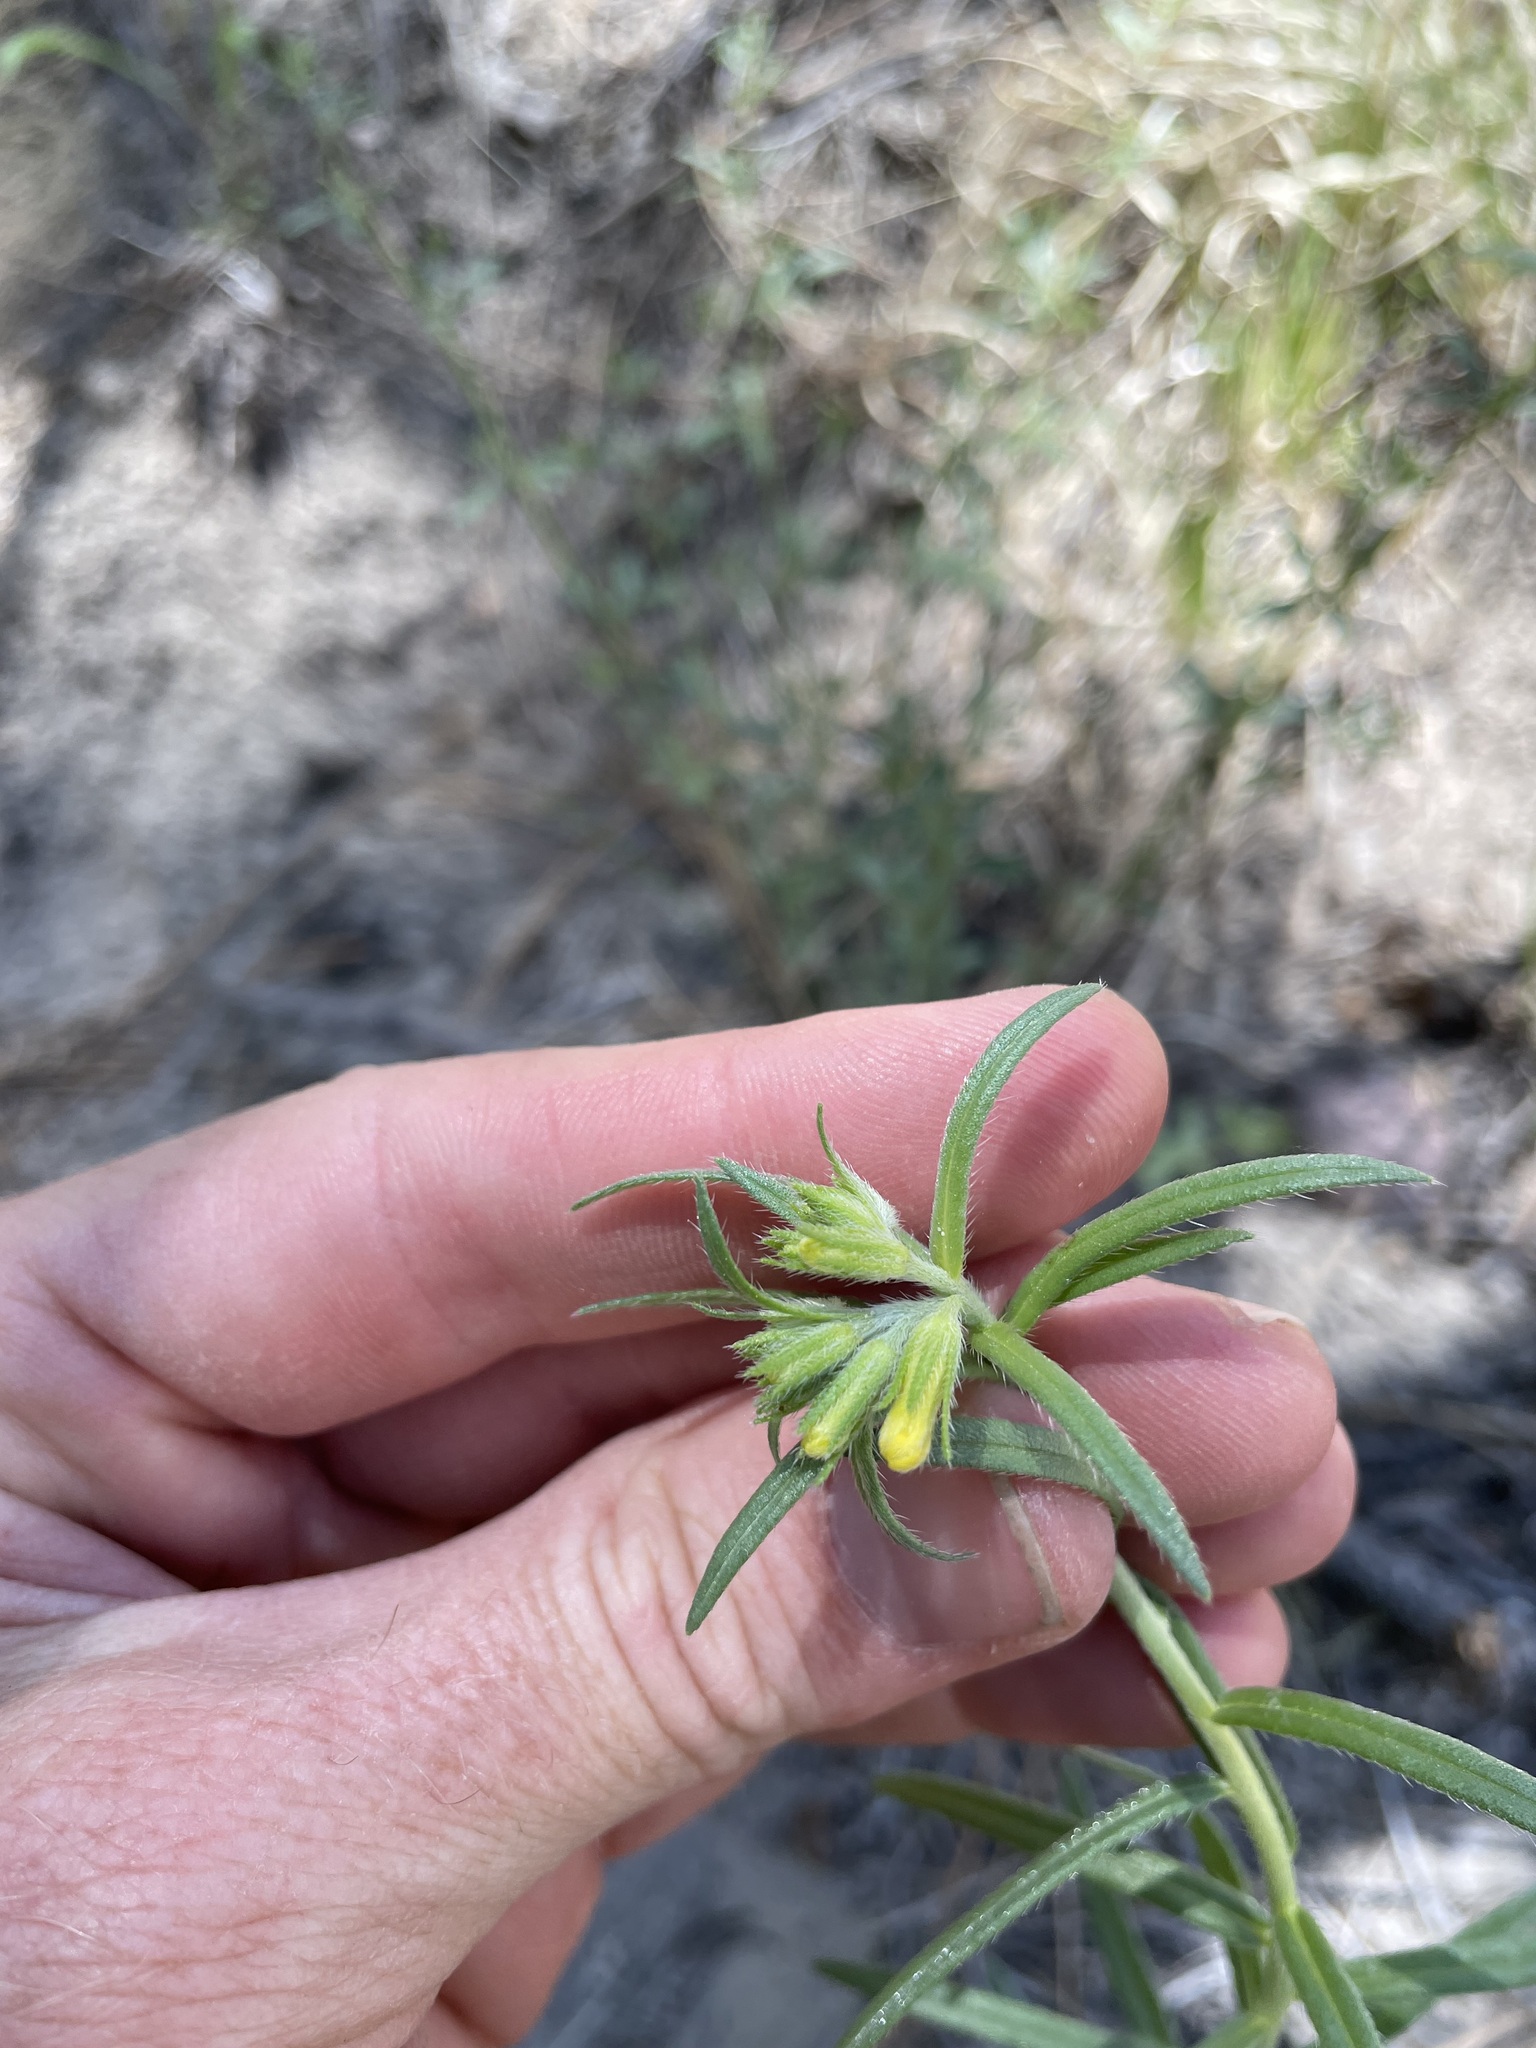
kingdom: Plantae
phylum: Tracheophyta
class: Magnoliopsida
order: Boraginales
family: Boraginaceae
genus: Lithospermum
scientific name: Lithospermum multiflorum
